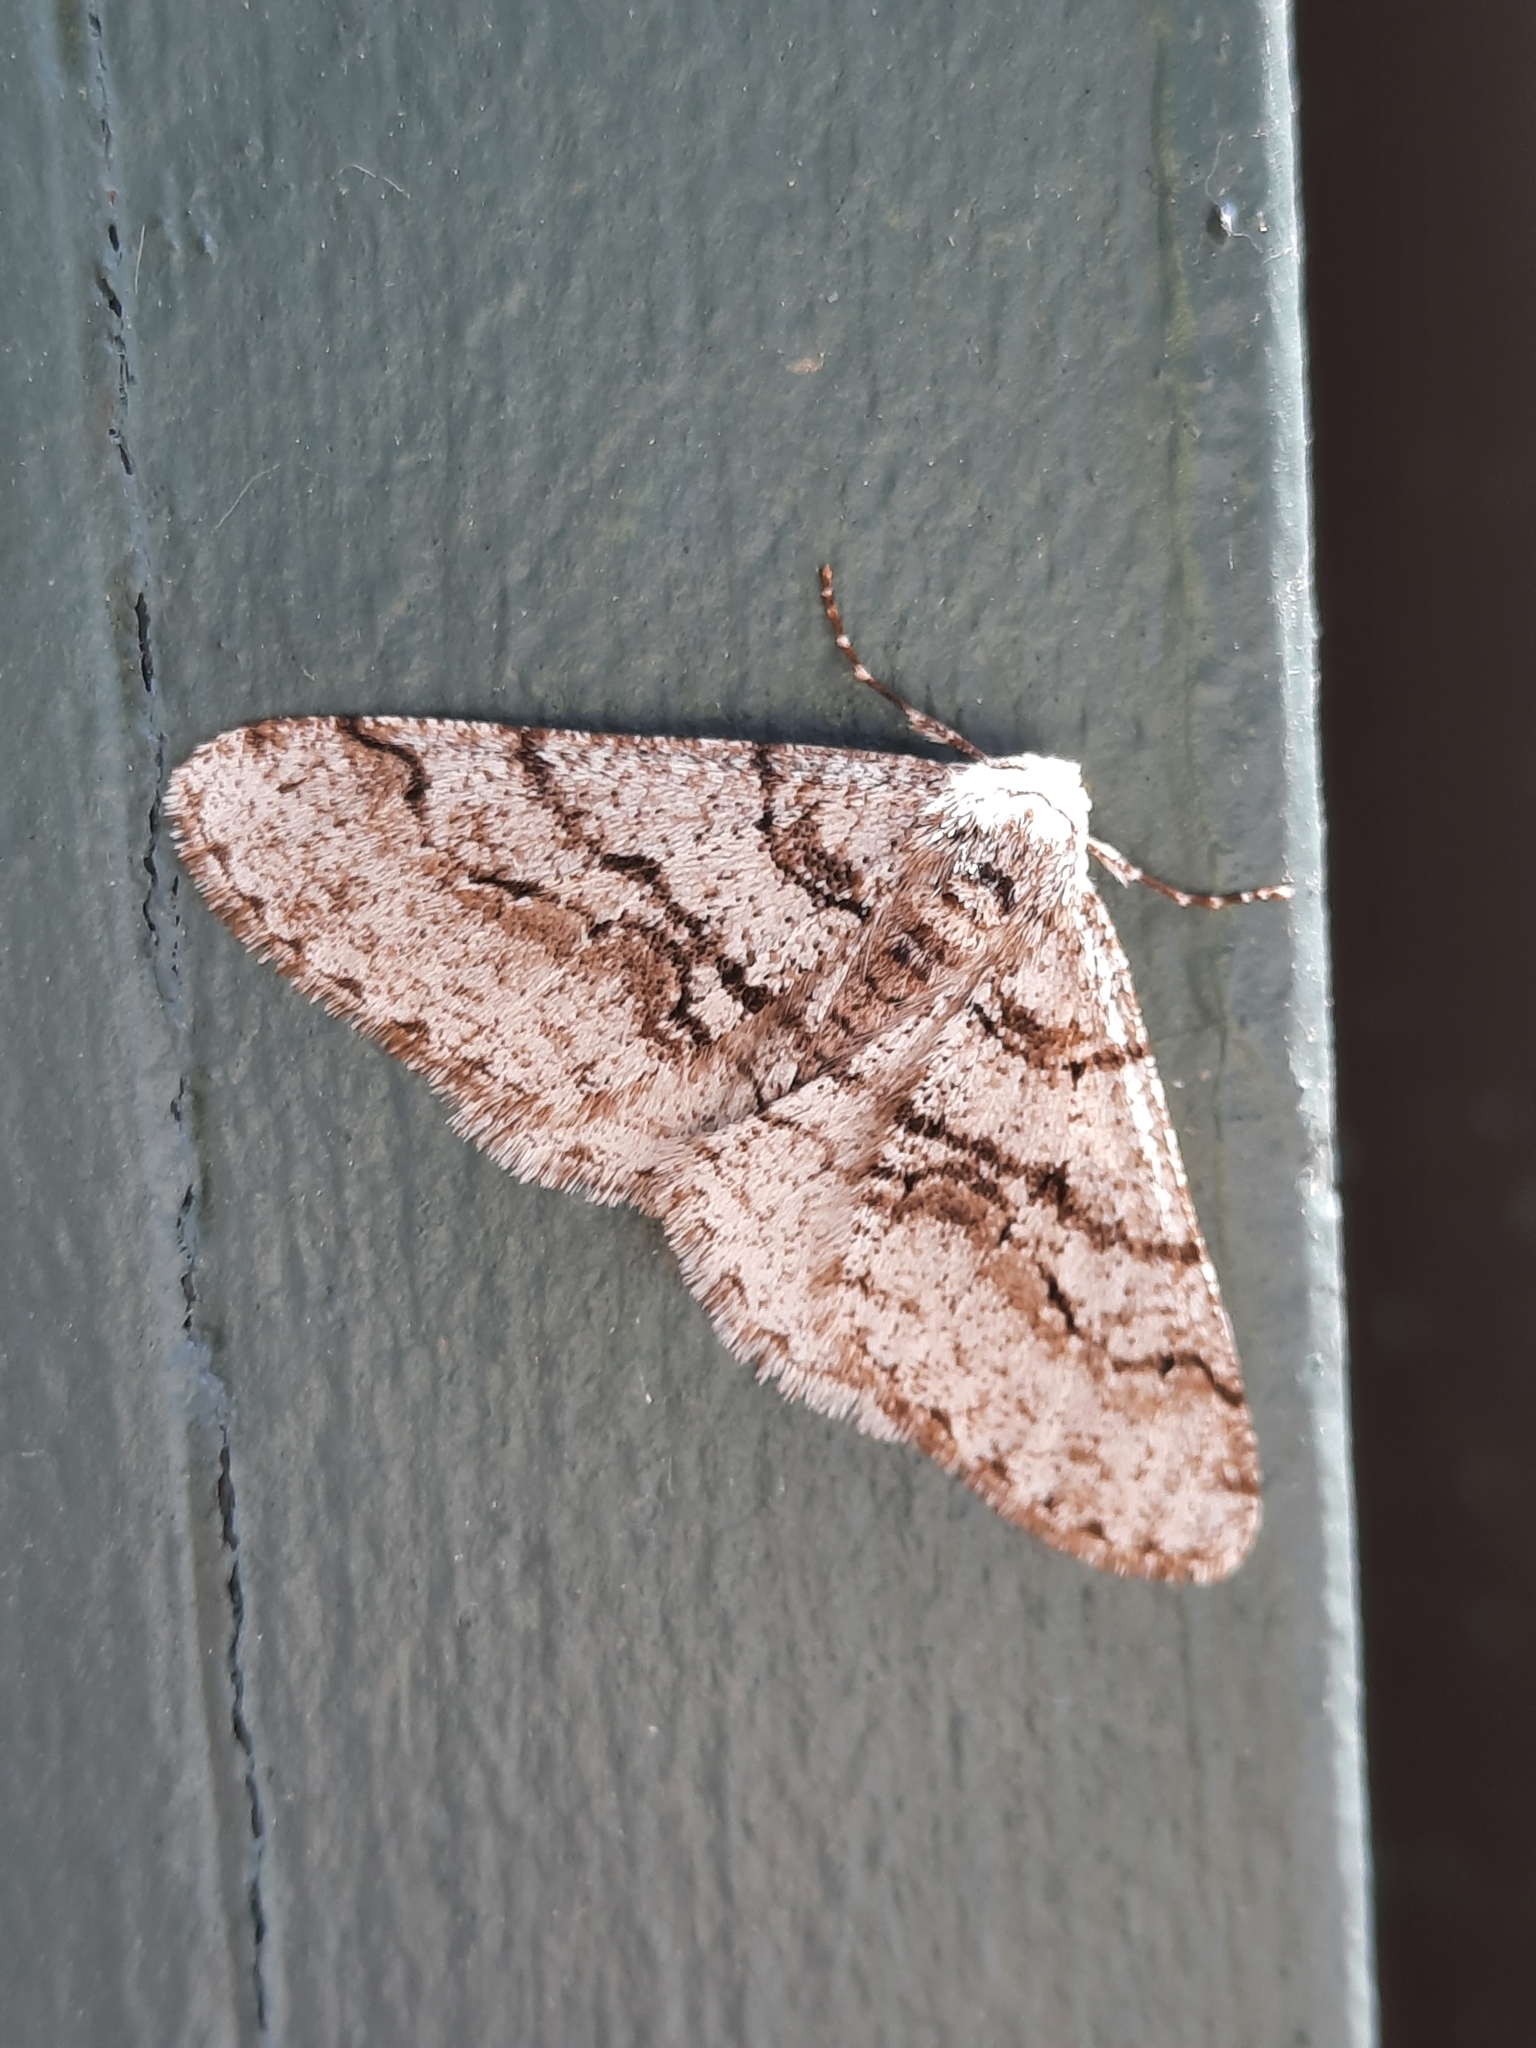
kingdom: Animalia
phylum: Arthropoda
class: Insecta
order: Lepidoptera
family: Geometridae
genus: Phigalia
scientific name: Phigalia titea
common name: Spiny looper
